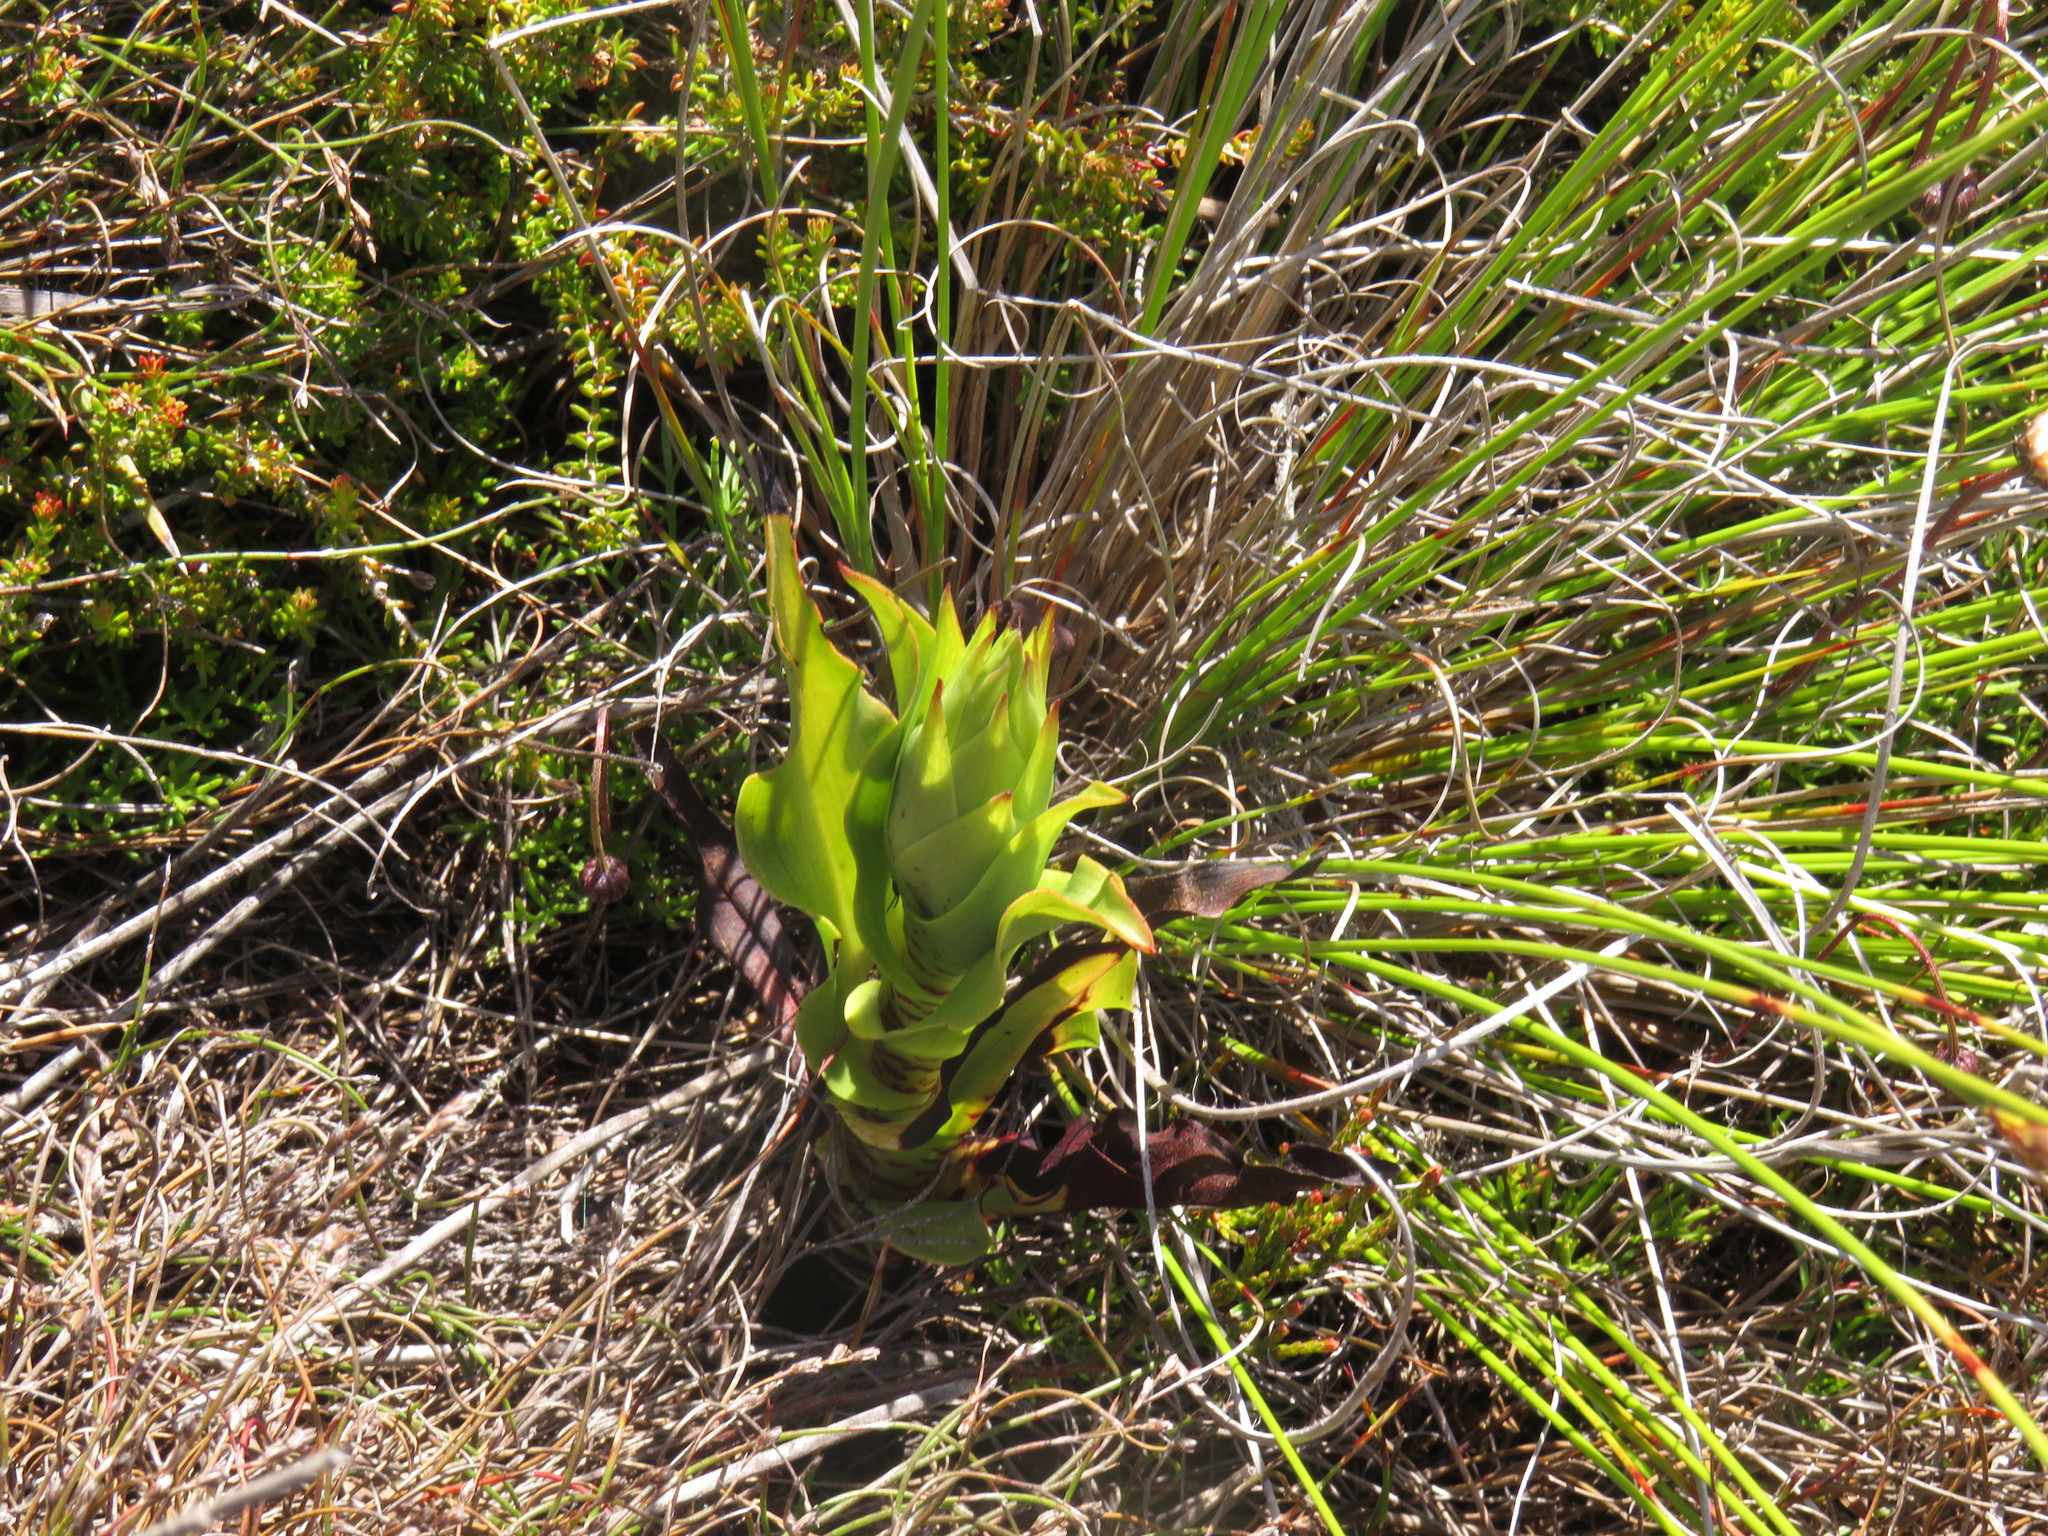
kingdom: Plantae
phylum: Tracheophyta
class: Liliopsida
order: Asparagales
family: Orchidaceae
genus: Disa
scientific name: Disa cornuta
